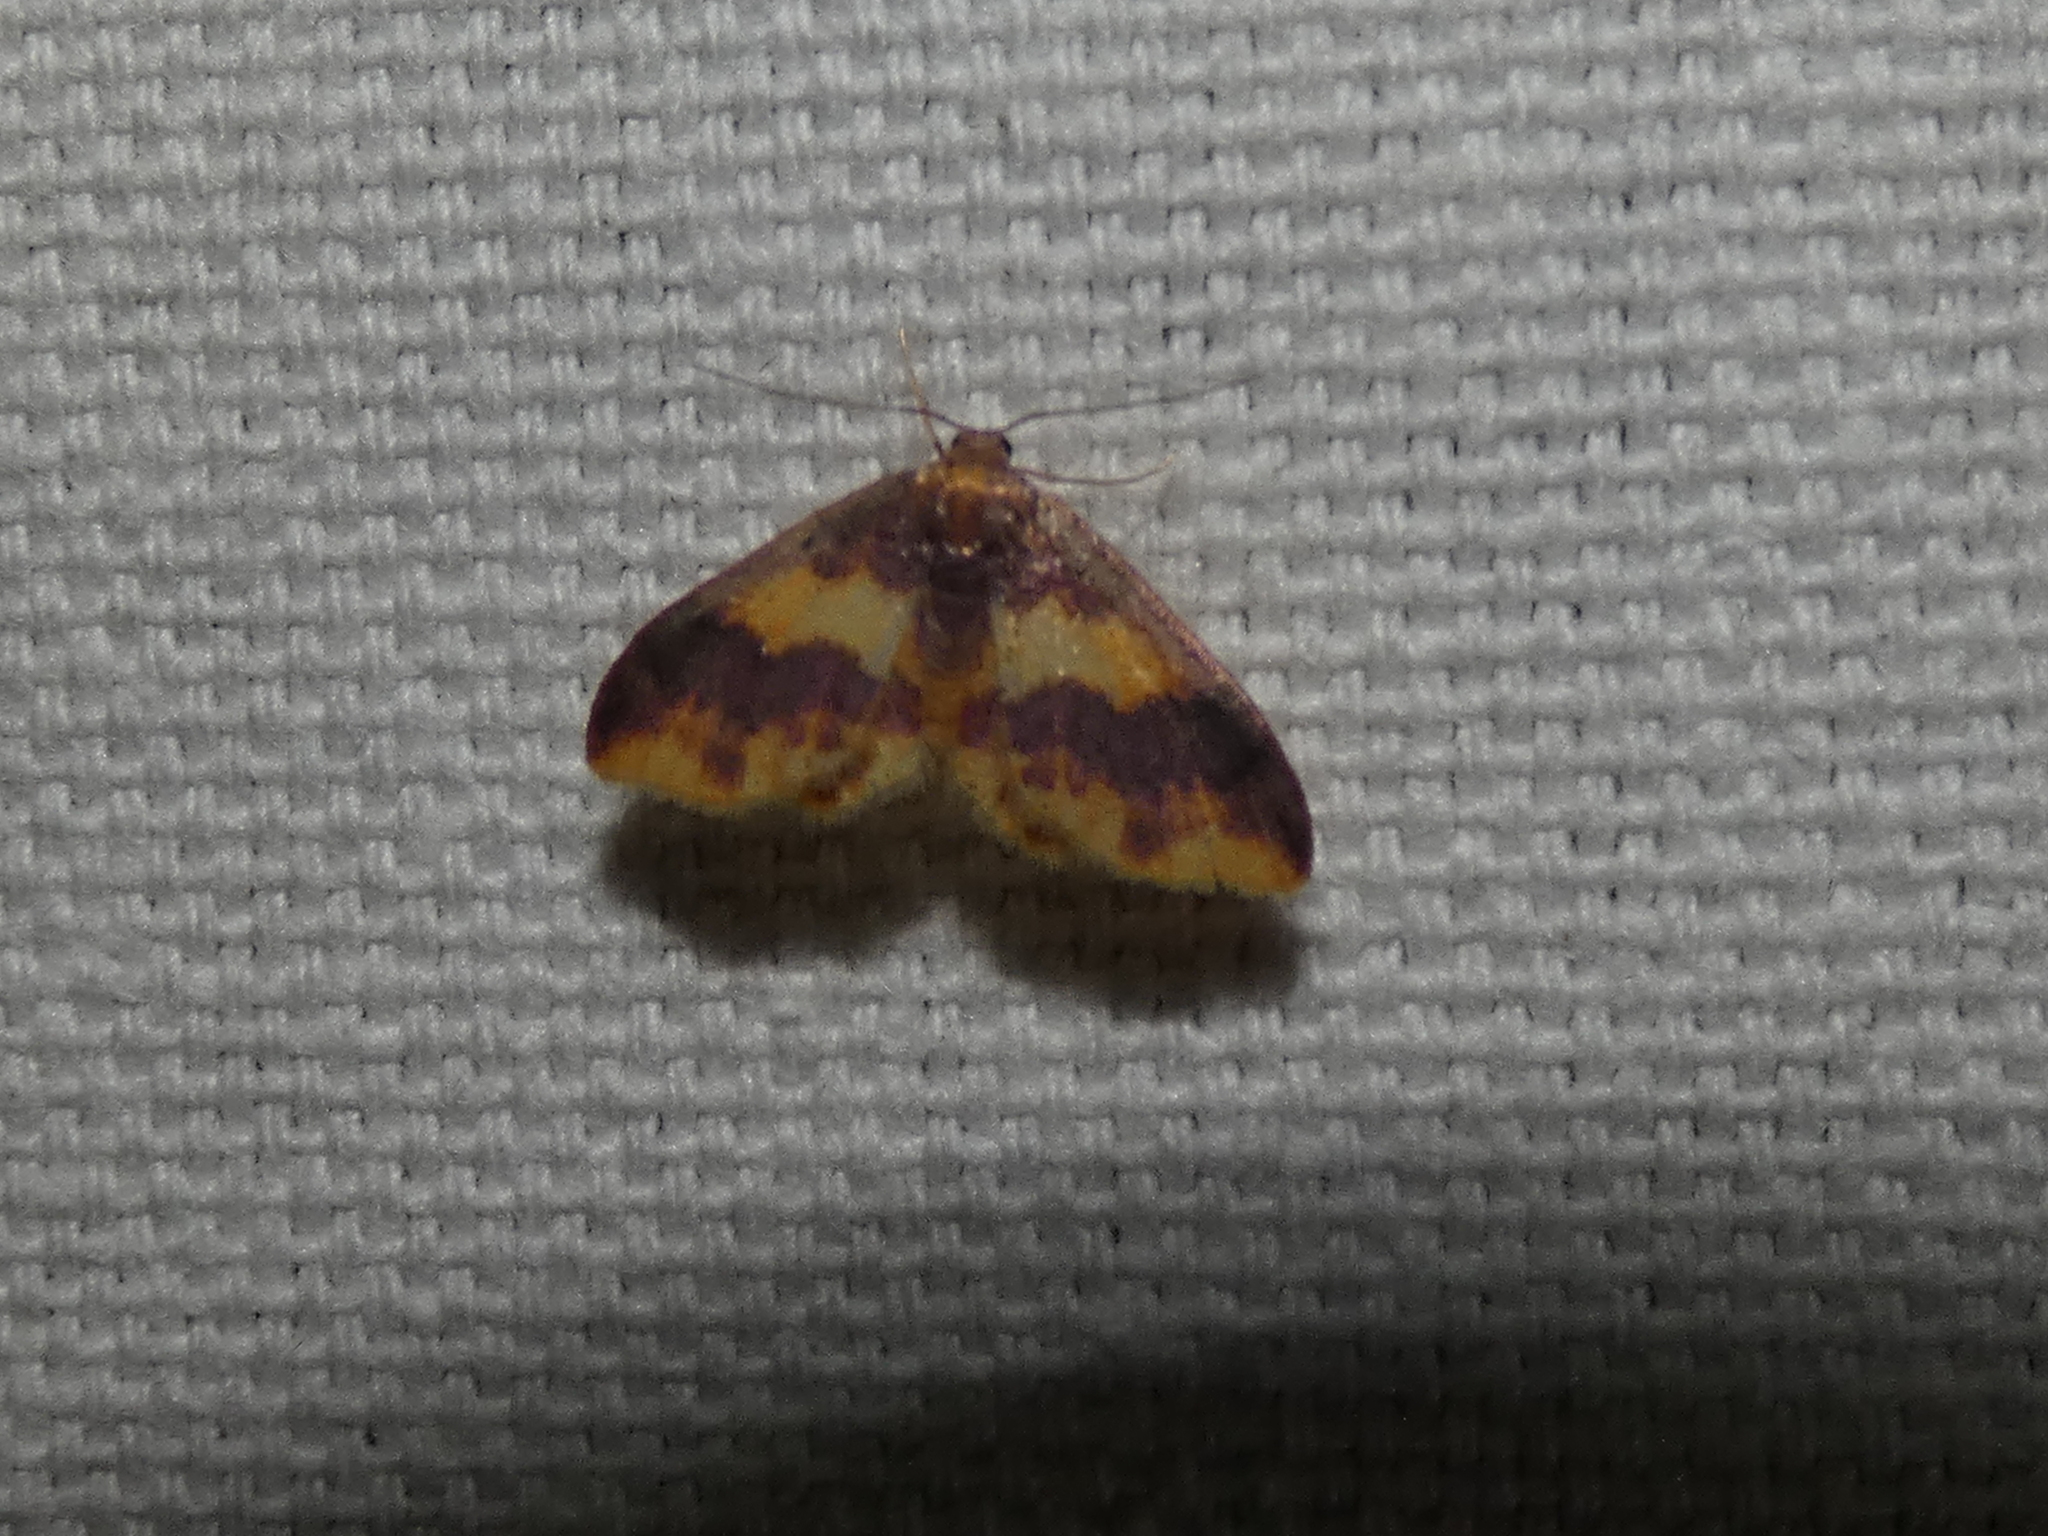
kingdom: Animalia
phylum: Arthropoda
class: Insecta
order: Lepidoptera
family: Geometridae
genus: Lophosis
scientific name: Lophosis labeculata
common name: Stained lophosis moth
